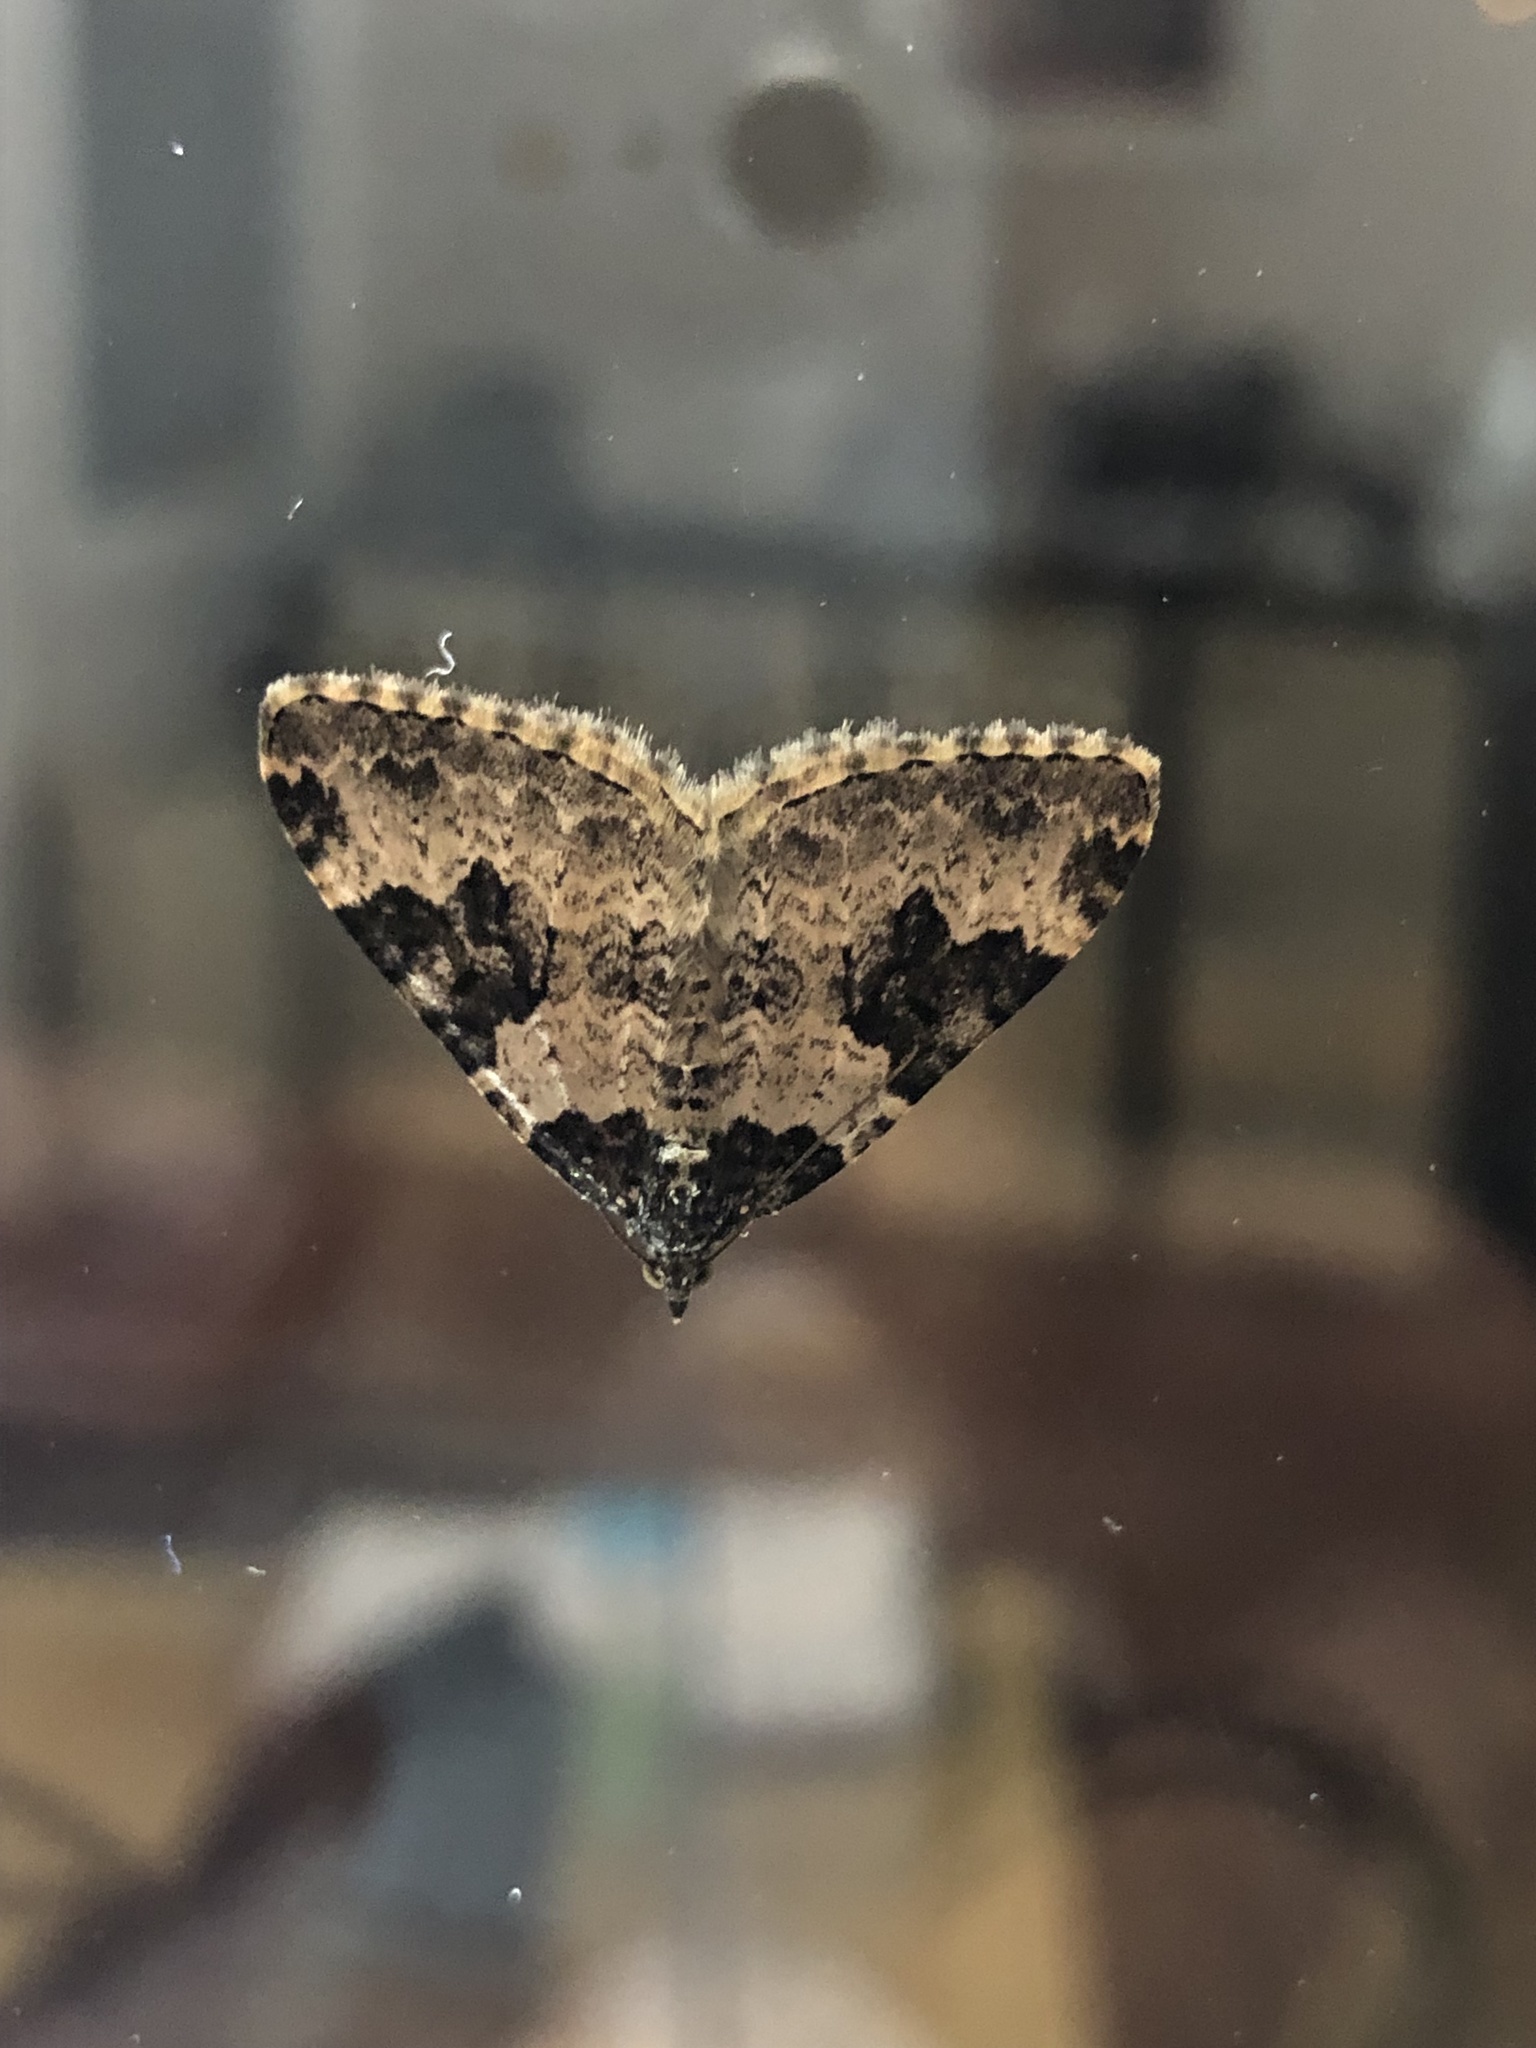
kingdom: Animalia
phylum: Arthropoda
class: Insecta
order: Lepidoptera
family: Geometridae
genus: Xanthorhoe
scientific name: Xanthorhoe fluctuata
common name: Garden carpet
